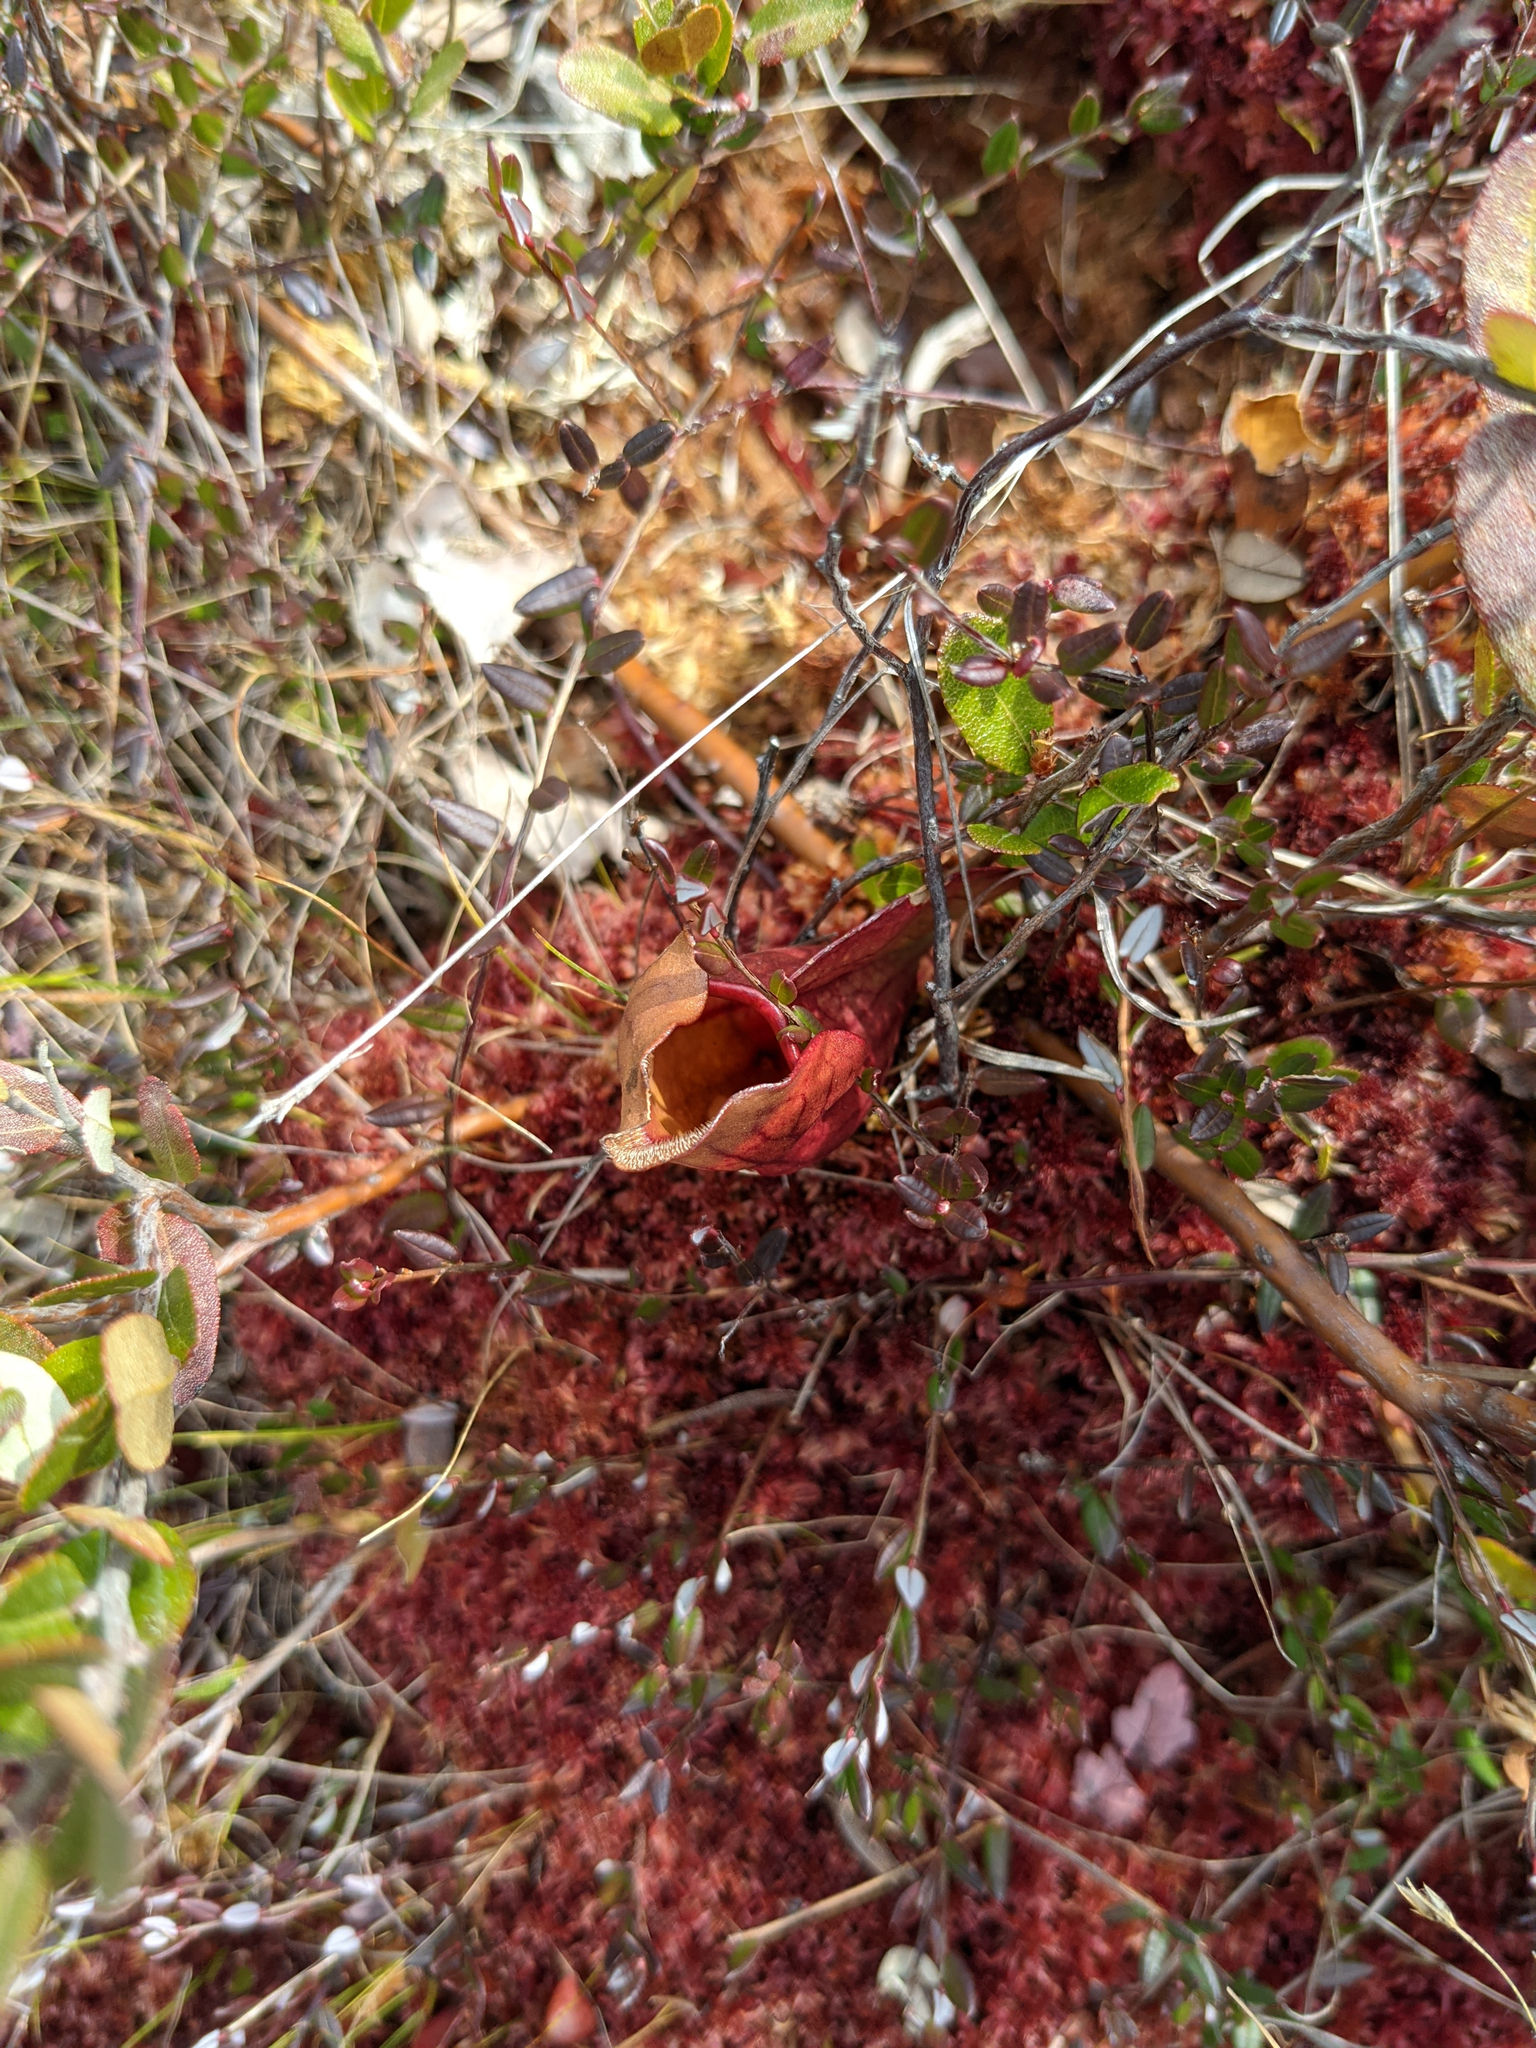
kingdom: Plantae
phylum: Tracheophyta
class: Magnoliopsida
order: Ericales
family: Sarraceniaceae
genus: Sarracenia
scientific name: Sarracenia purpurea
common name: Pitcherplant
